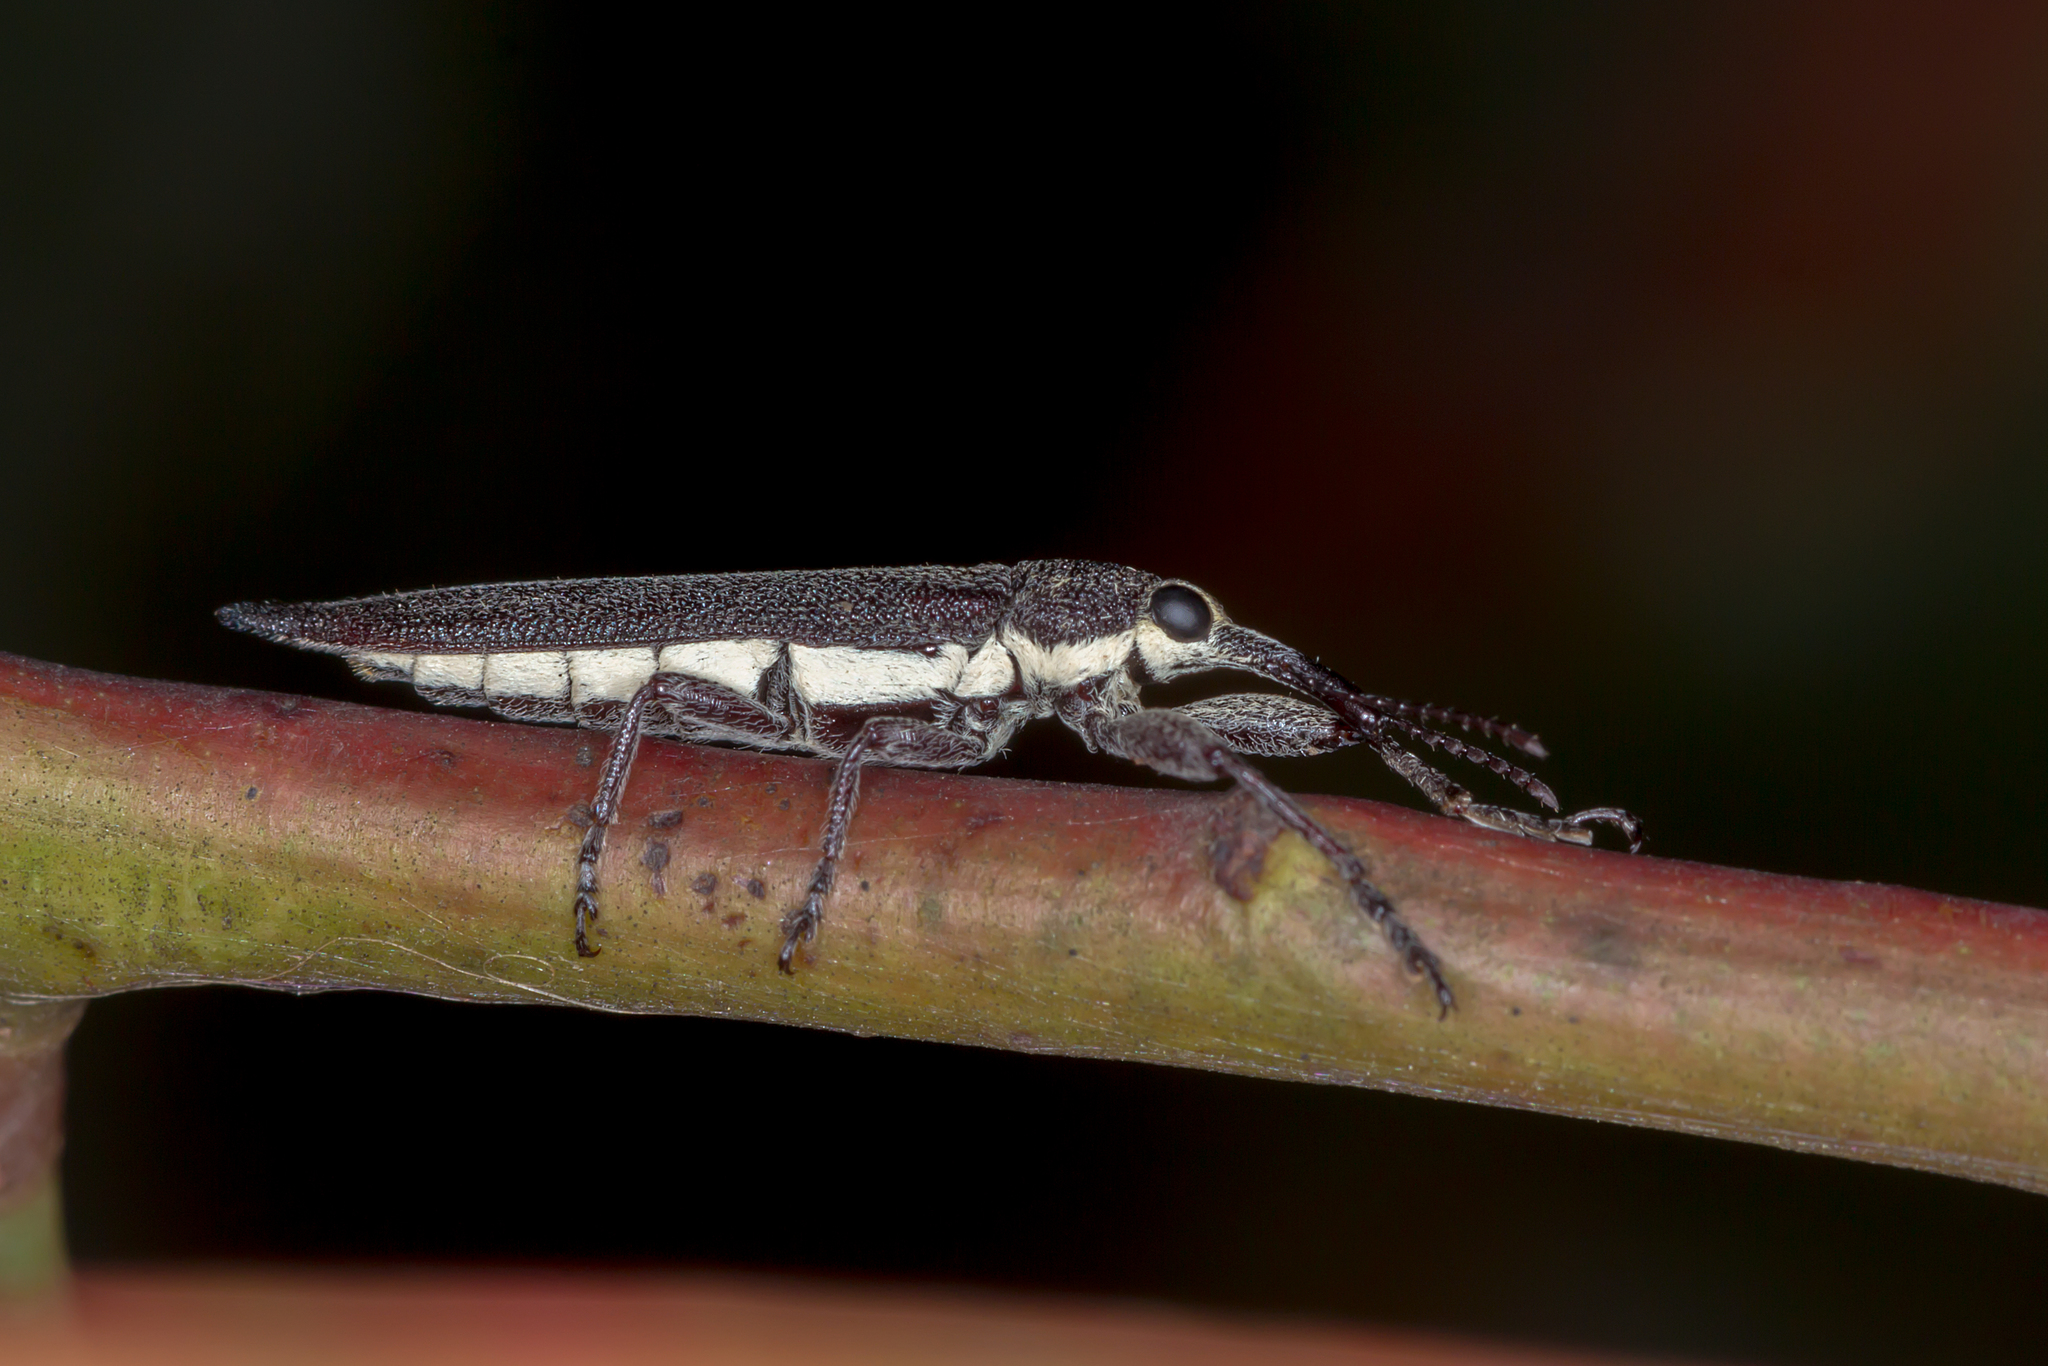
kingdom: Animalia
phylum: Arthropoda
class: Insecta
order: Coleoptera
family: Belidae
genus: Rhinotia
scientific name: Rhinotia
